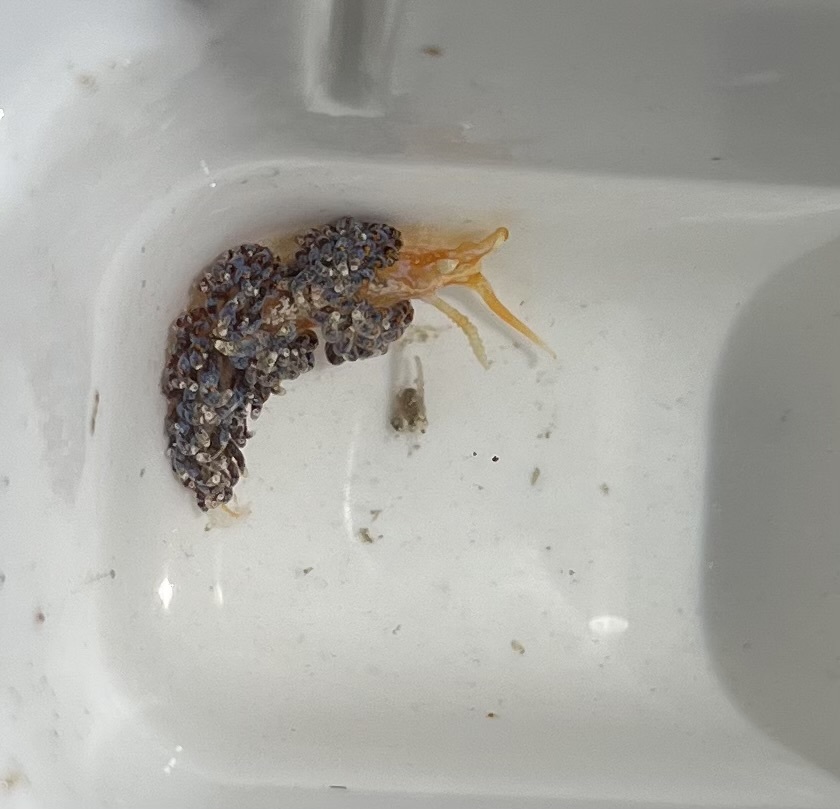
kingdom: Animalia
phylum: Mollusca
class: Gastropoda
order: Nudibranchia
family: Facelinidae
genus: Austraeolis
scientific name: Austraeolis ornata
